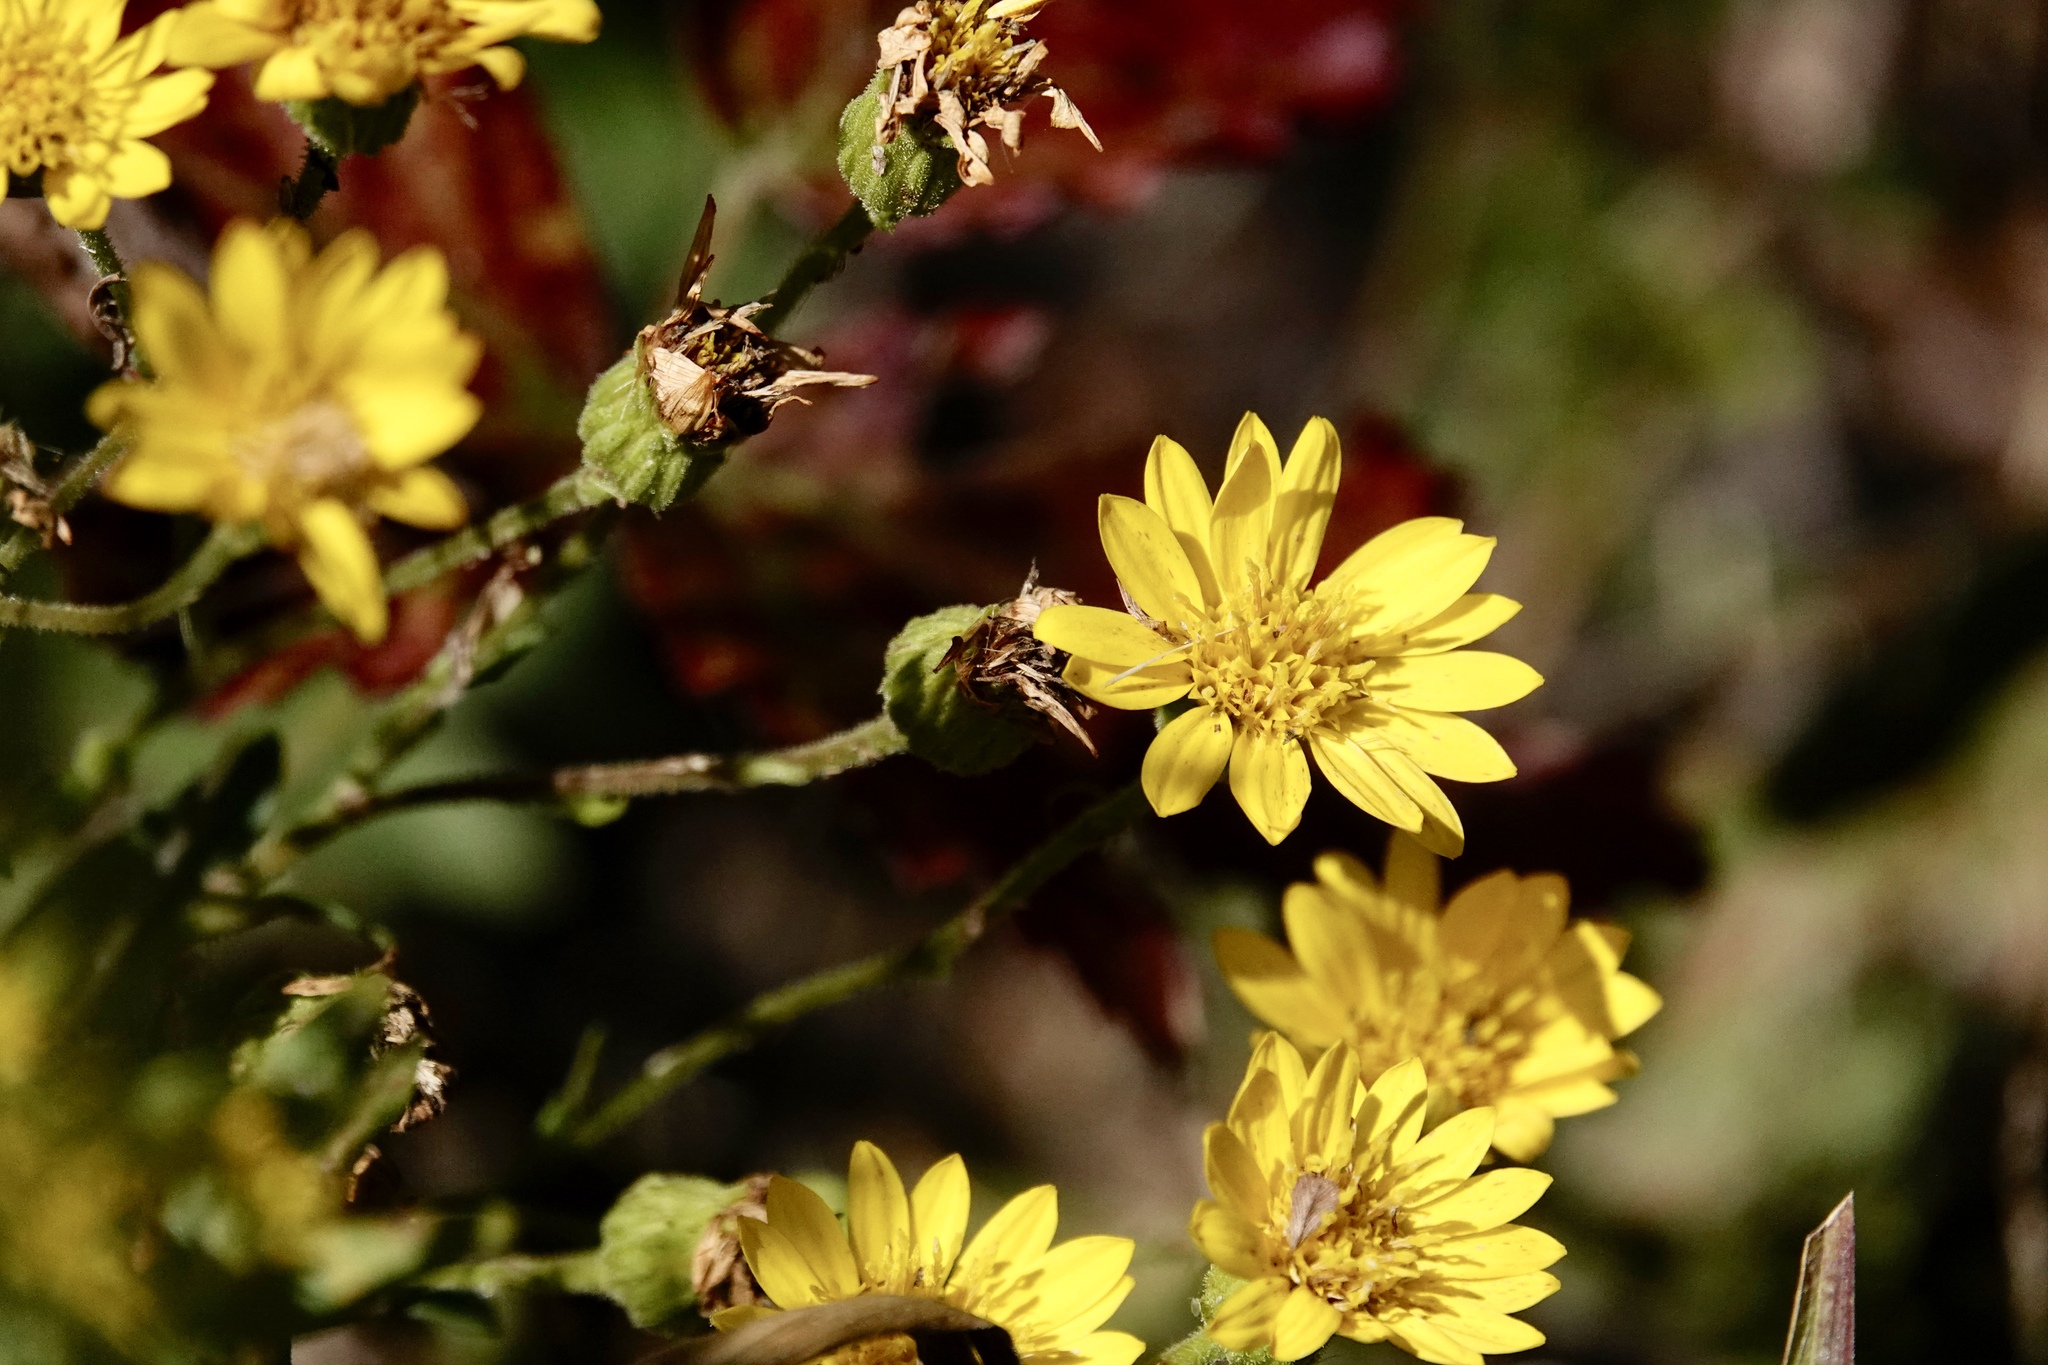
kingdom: Plantae
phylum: Tracheophyta
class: Magnoliopsida
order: Asterales
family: Asteraceae
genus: Chrysopsis
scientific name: Chrysopsis mariana
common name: Maryland golden-aster
